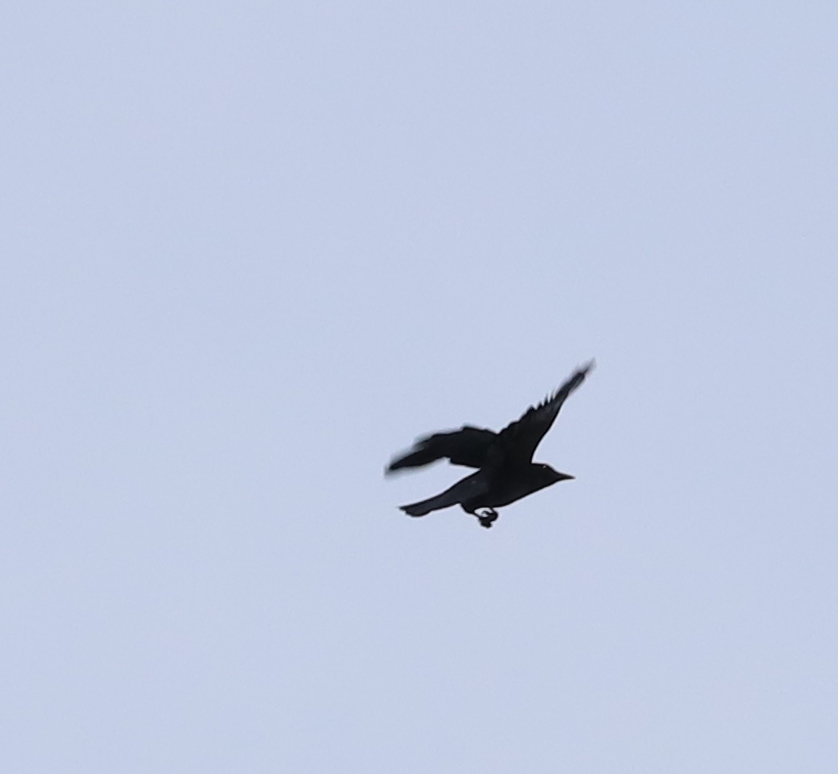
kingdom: Animalia
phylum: Chordata
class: Aves
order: Passeriformes
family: Corvidae
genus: Corvus
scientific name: Corvus ossifragus
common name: Fish crow
